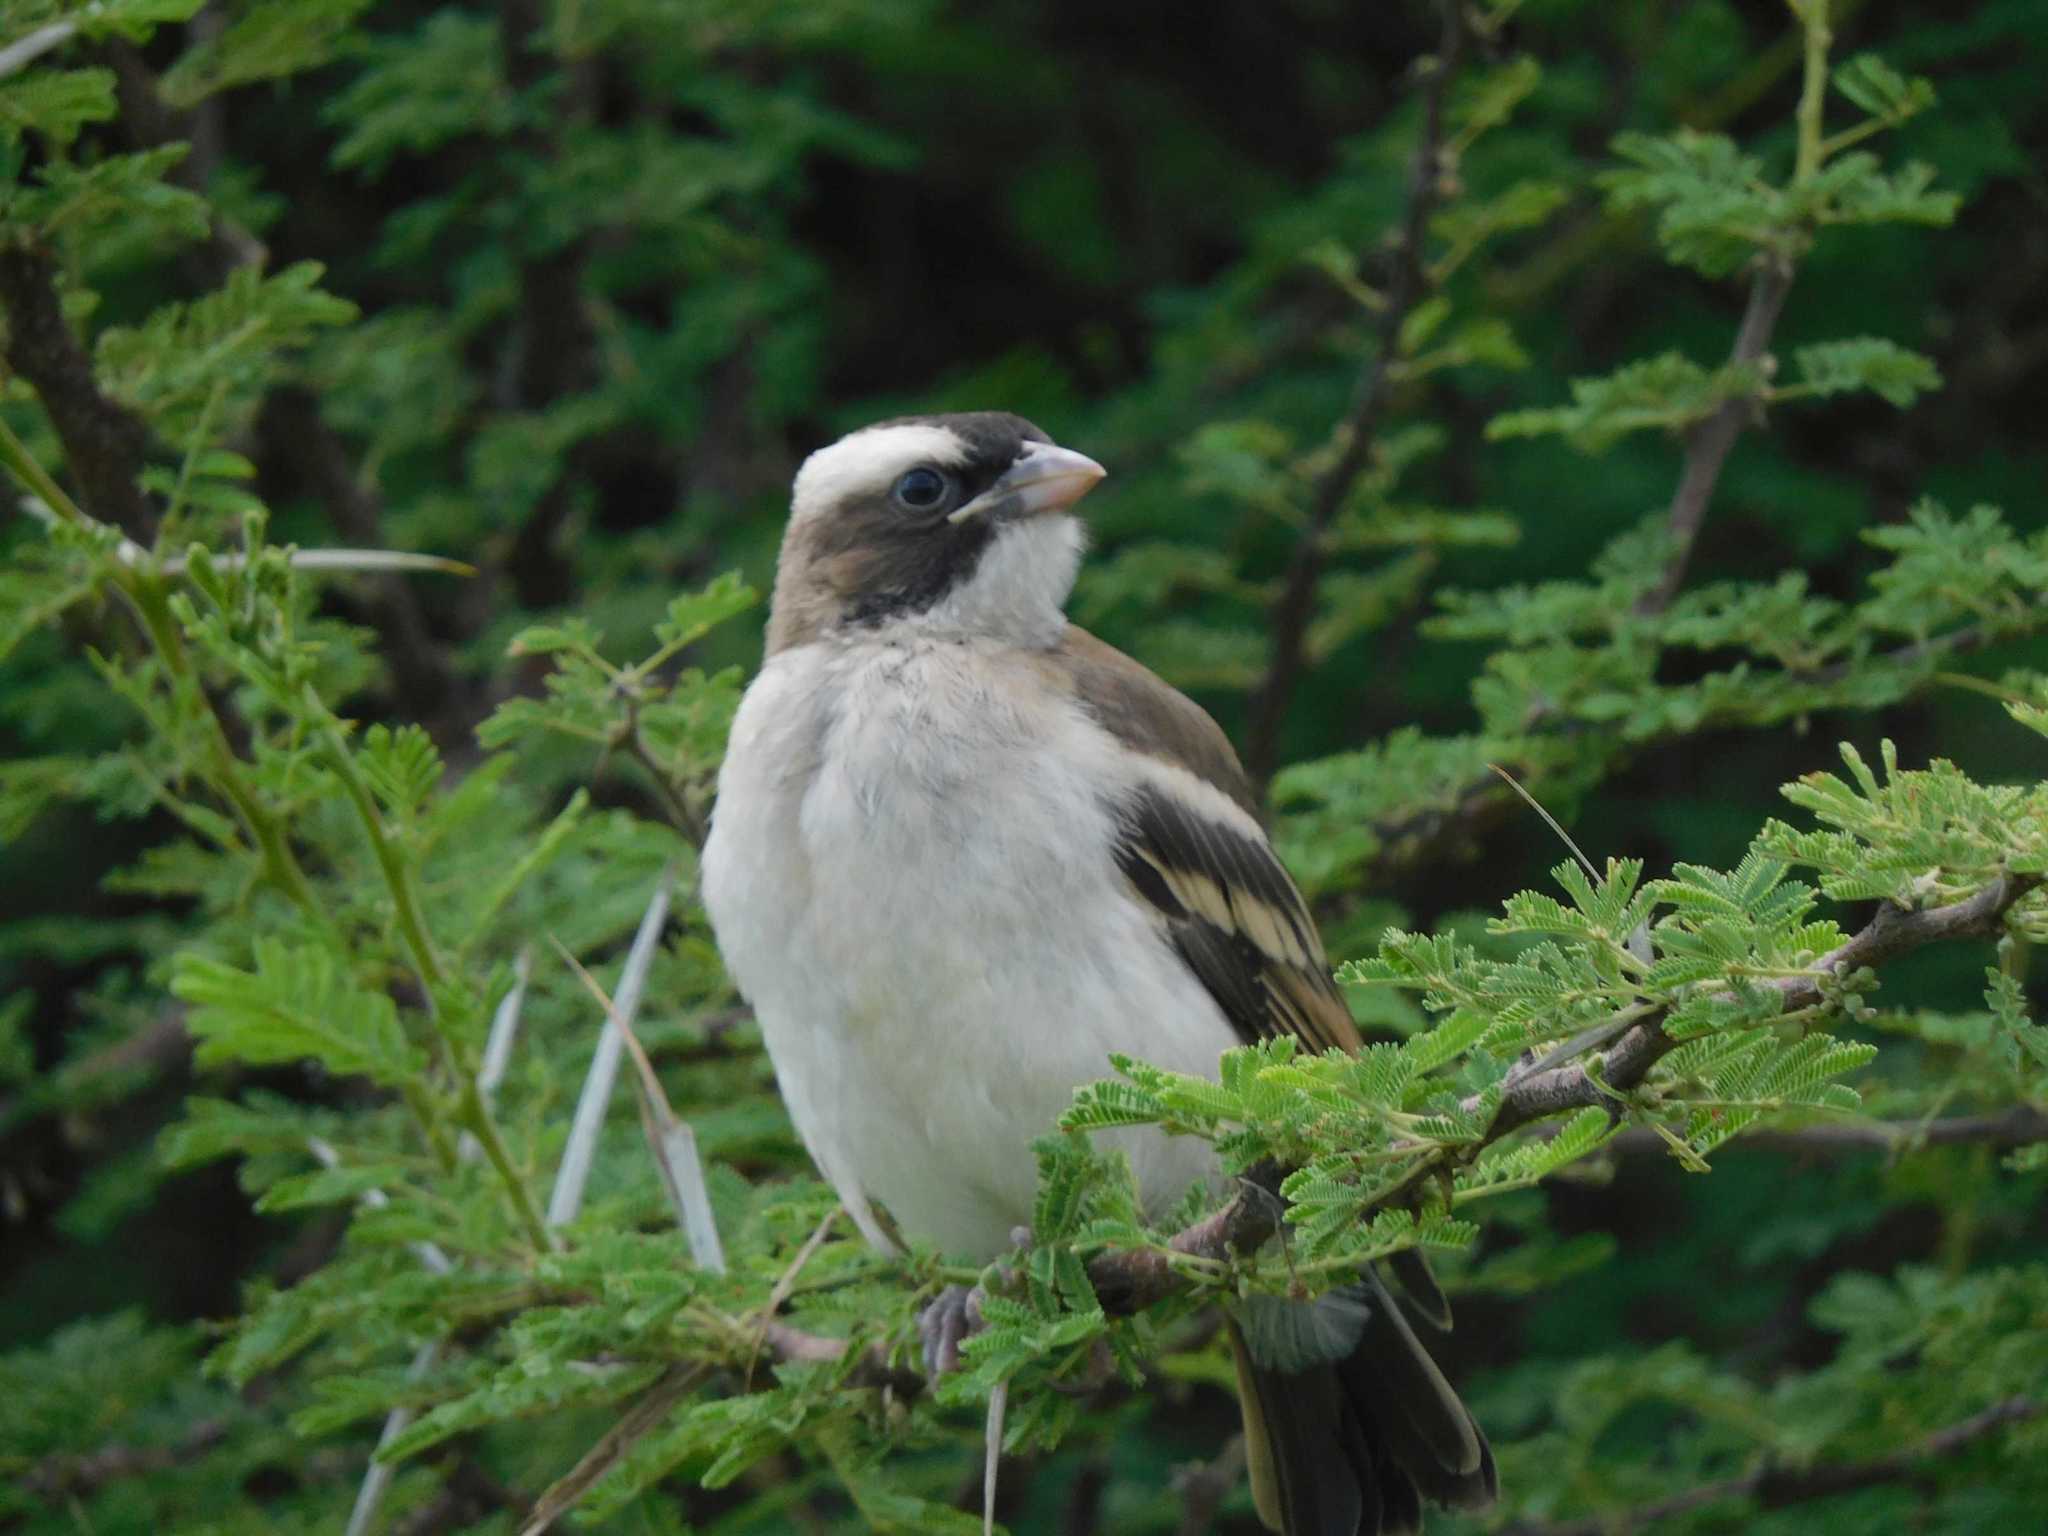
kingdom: Animalia
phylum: Chordata
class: Aves
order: Passeriformes
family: Passeridae
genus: Plocepasser
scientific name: Plocepasser mahali
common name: White-browed sparrow-weaver
